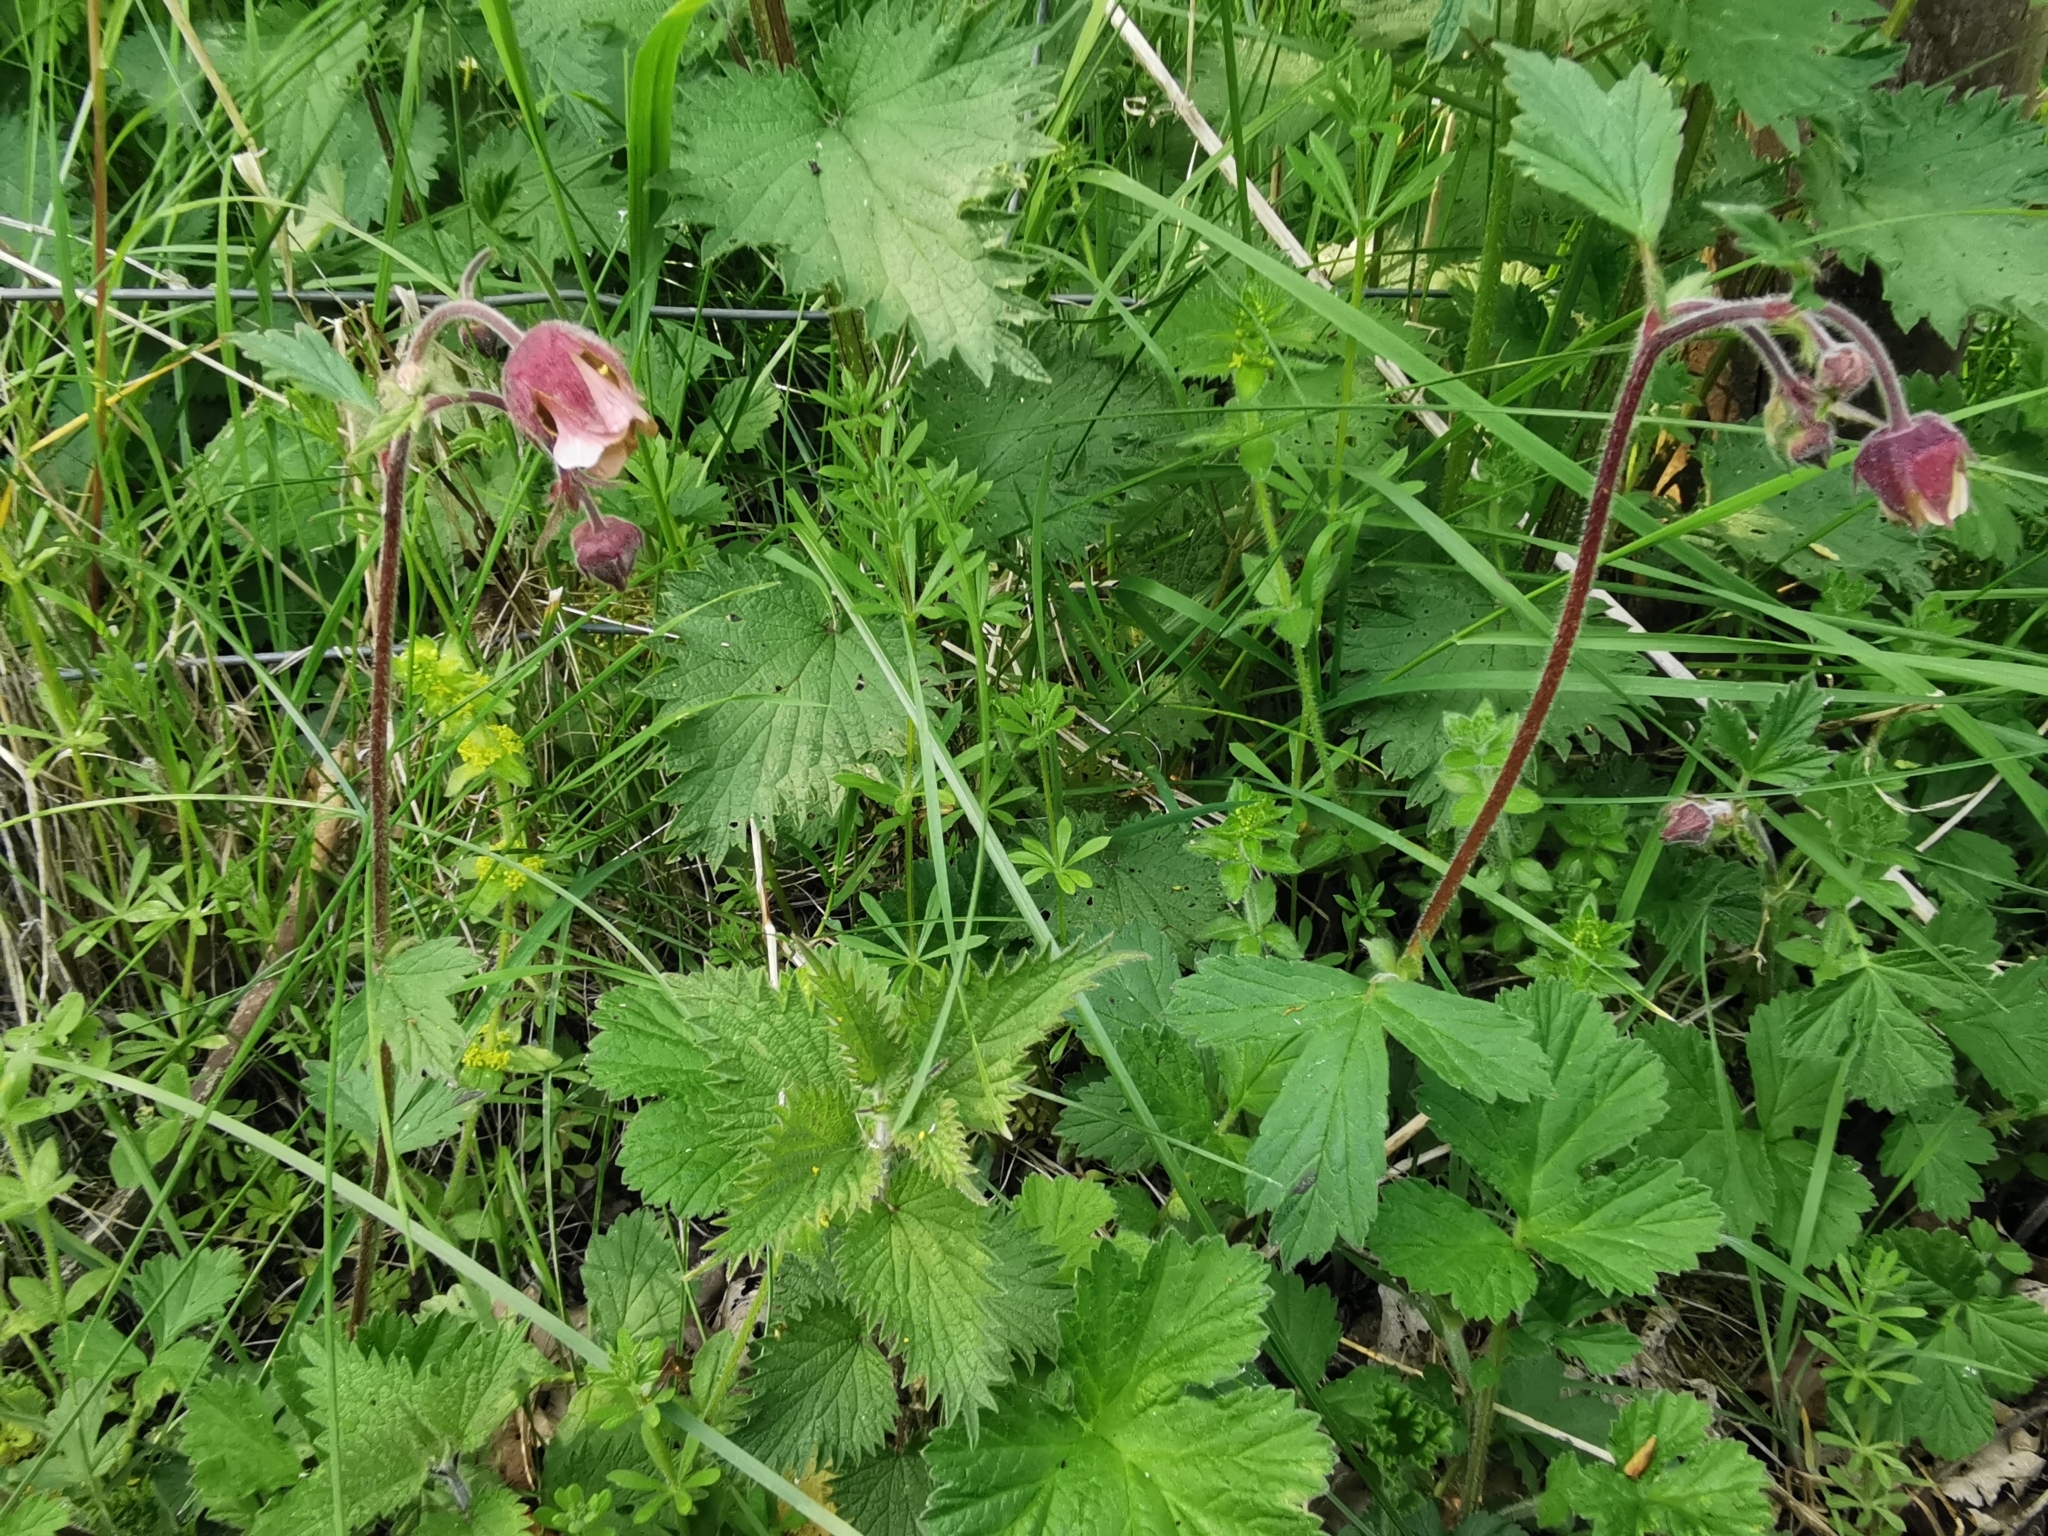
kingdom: Plantae
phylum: Tracheophyta
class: Magnoliopsida
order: Rosales
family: Rosaceae
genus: Geum
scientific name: Geum rivale
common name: Water avens
